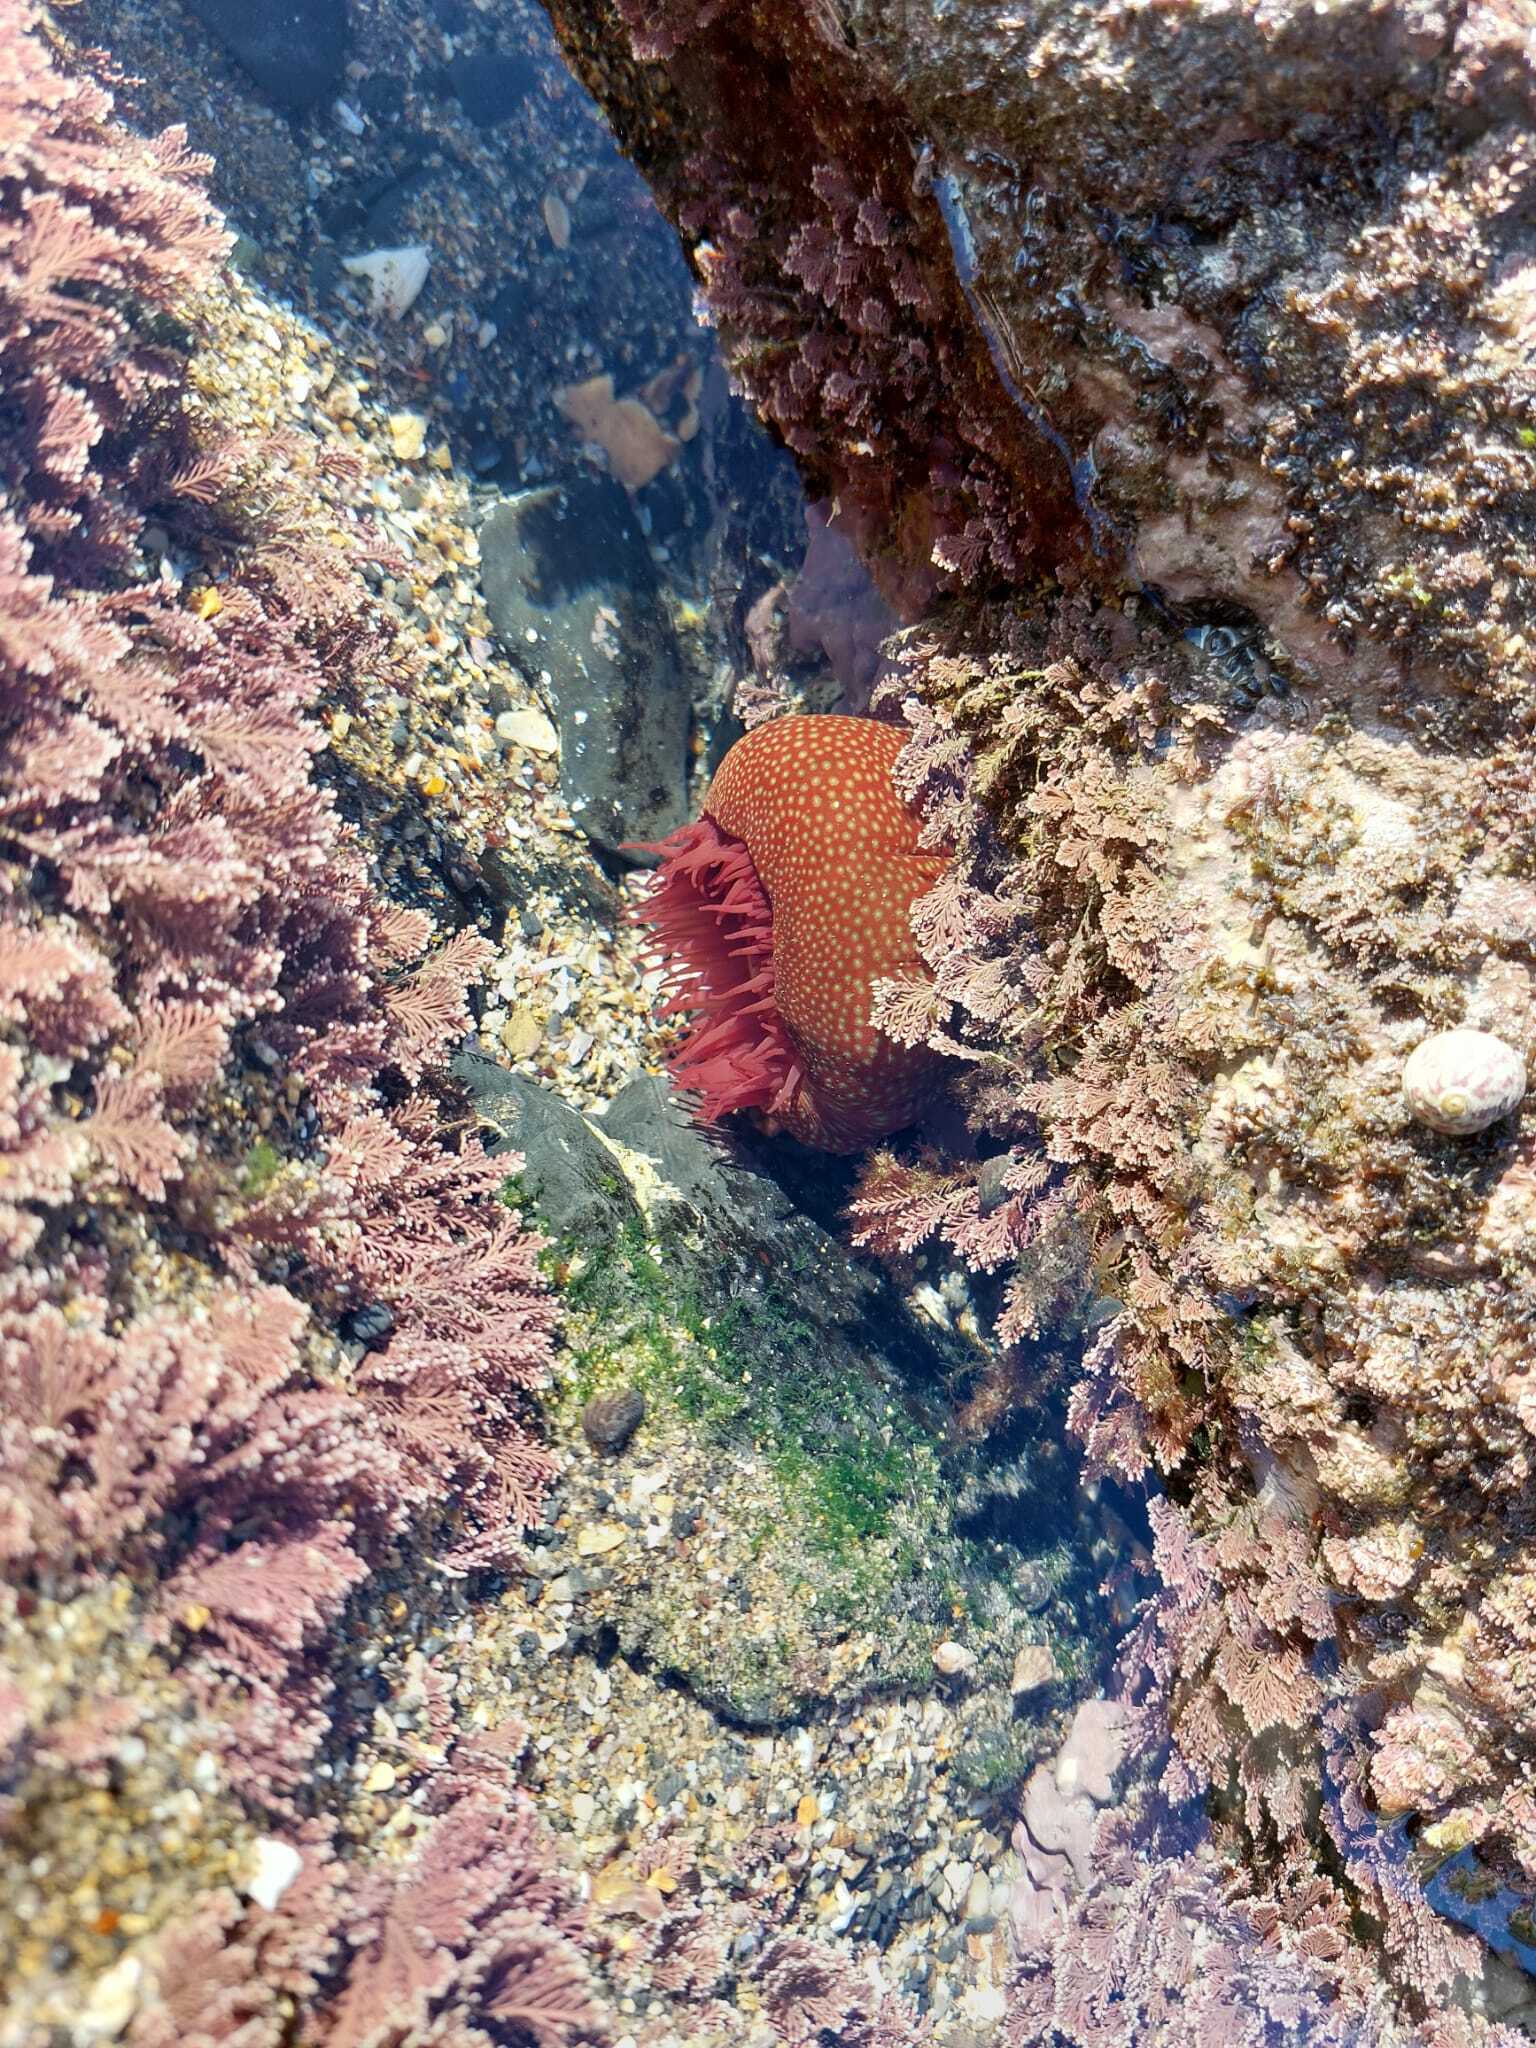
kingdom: Animalia
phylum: Cnidaria
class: Anthozoa
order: Actiniaria
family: Actiniidae
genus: Actinia
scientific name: Actinia fragacea
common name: Strawberry anemone
